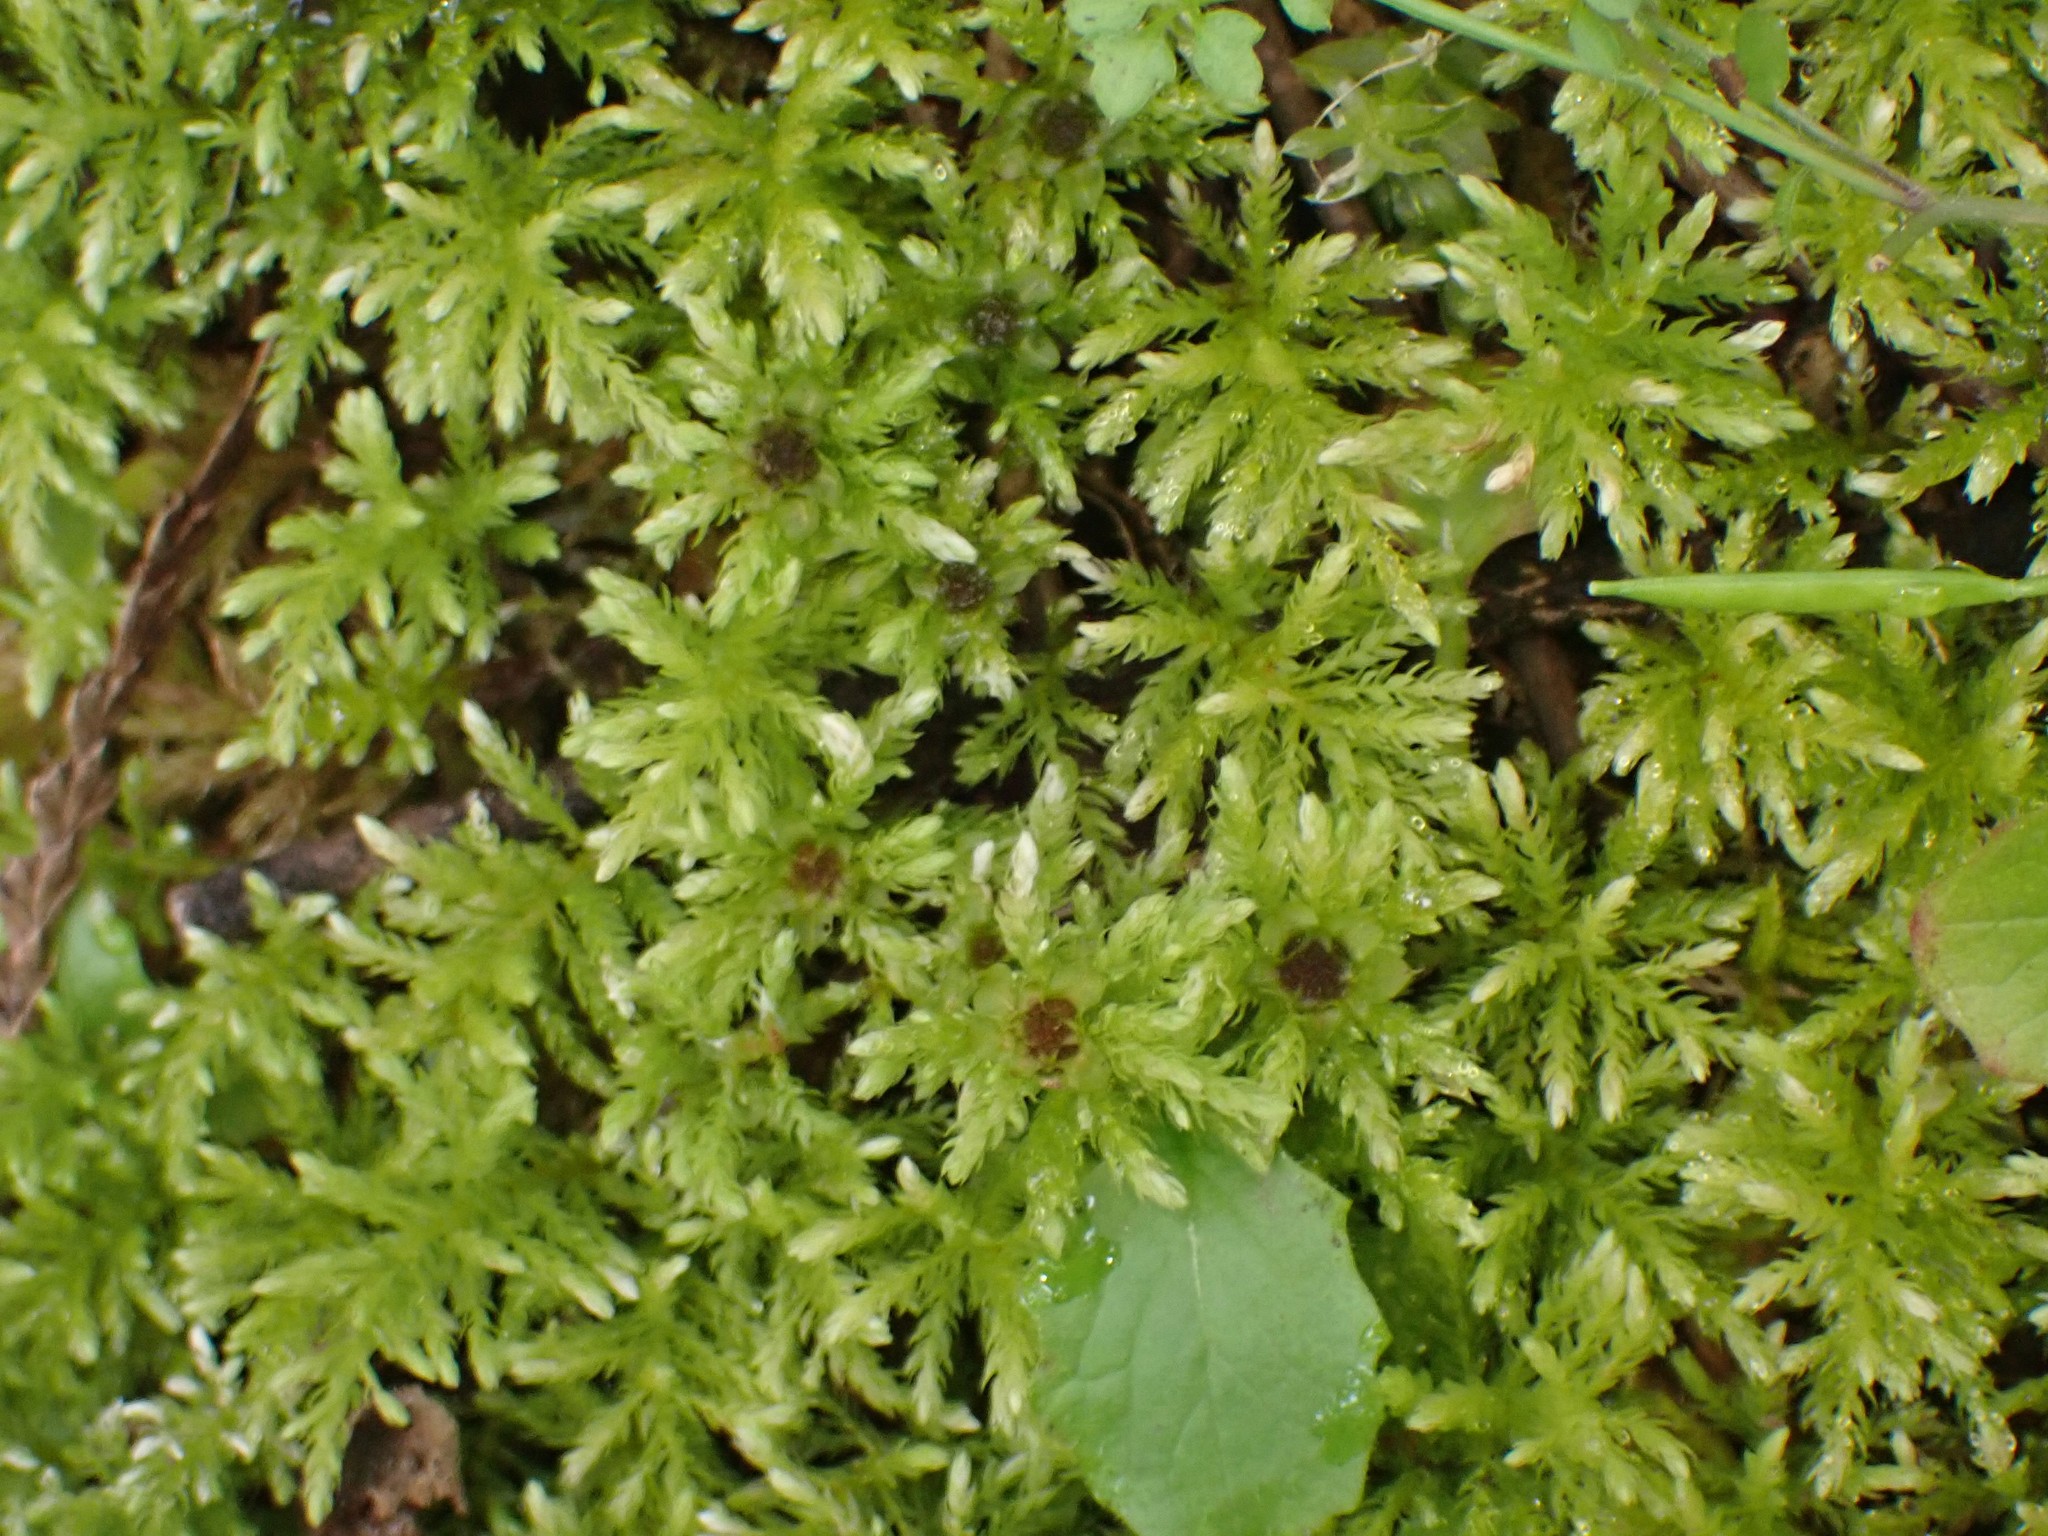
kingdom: Plantae
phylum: Bryophyta
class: Bryopsida
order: Bryales
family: Mniaceae
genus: Leucolepis
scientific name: Leucolepis acanthoneura
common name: Leucolepis umbrella moss
